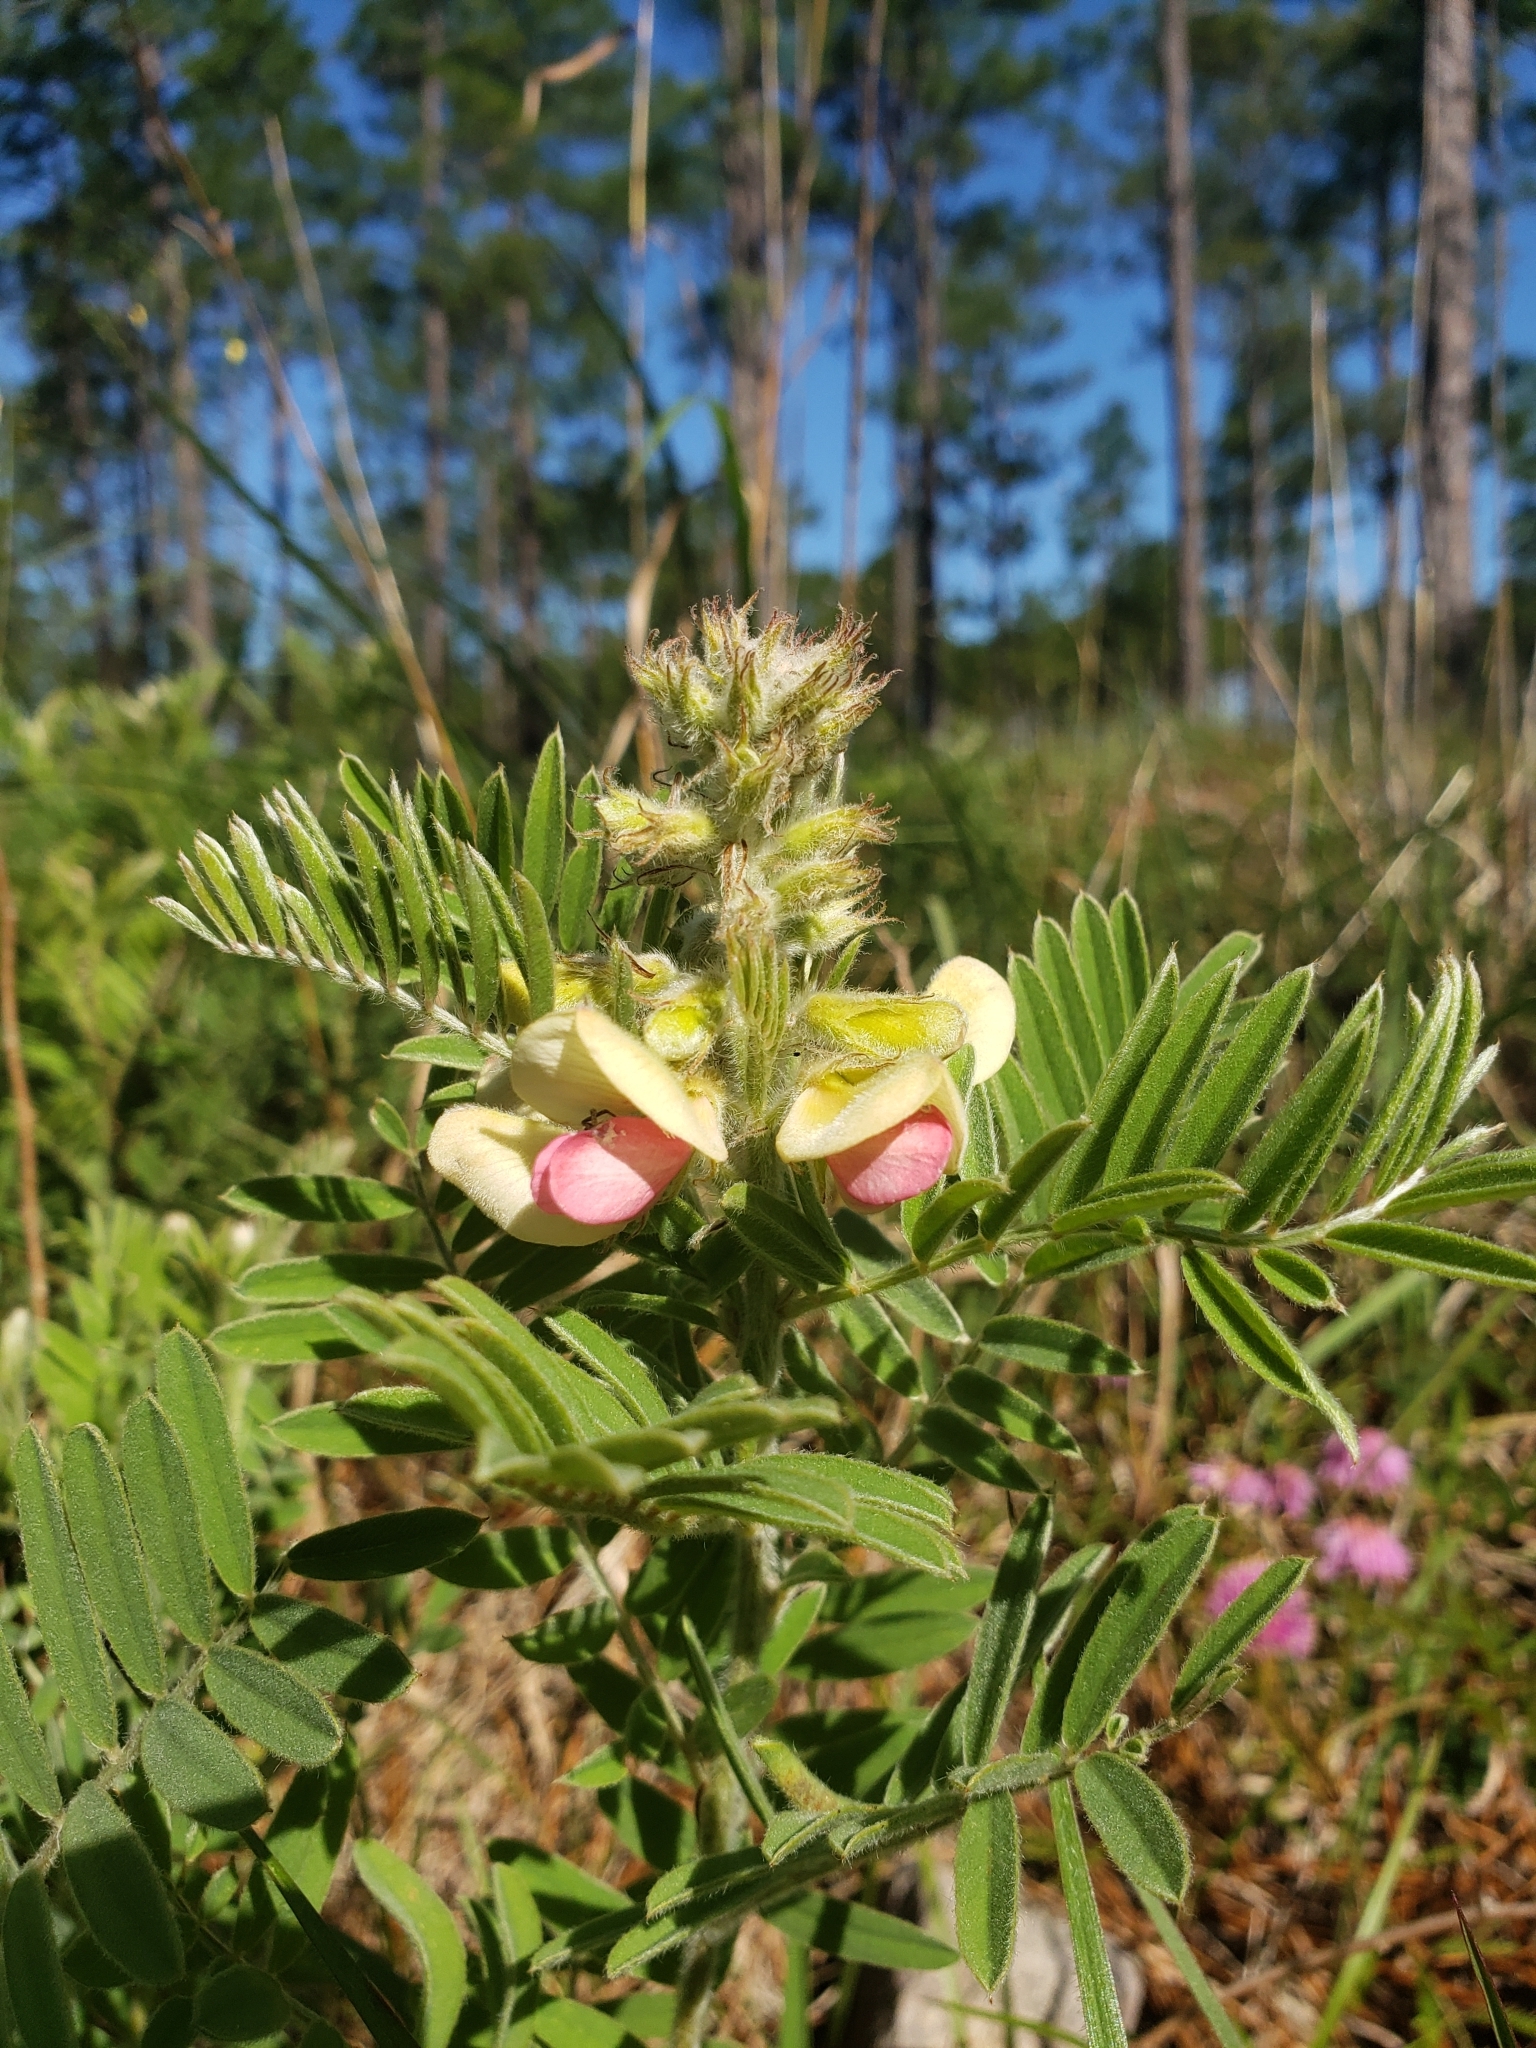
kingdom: Plantae
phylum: Tracheophyta
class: Magnoliopsida
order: Fabales
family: Fabaceae
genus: Tephrosia
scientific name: Tephrosia virginiana
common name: Rabbit-pea
